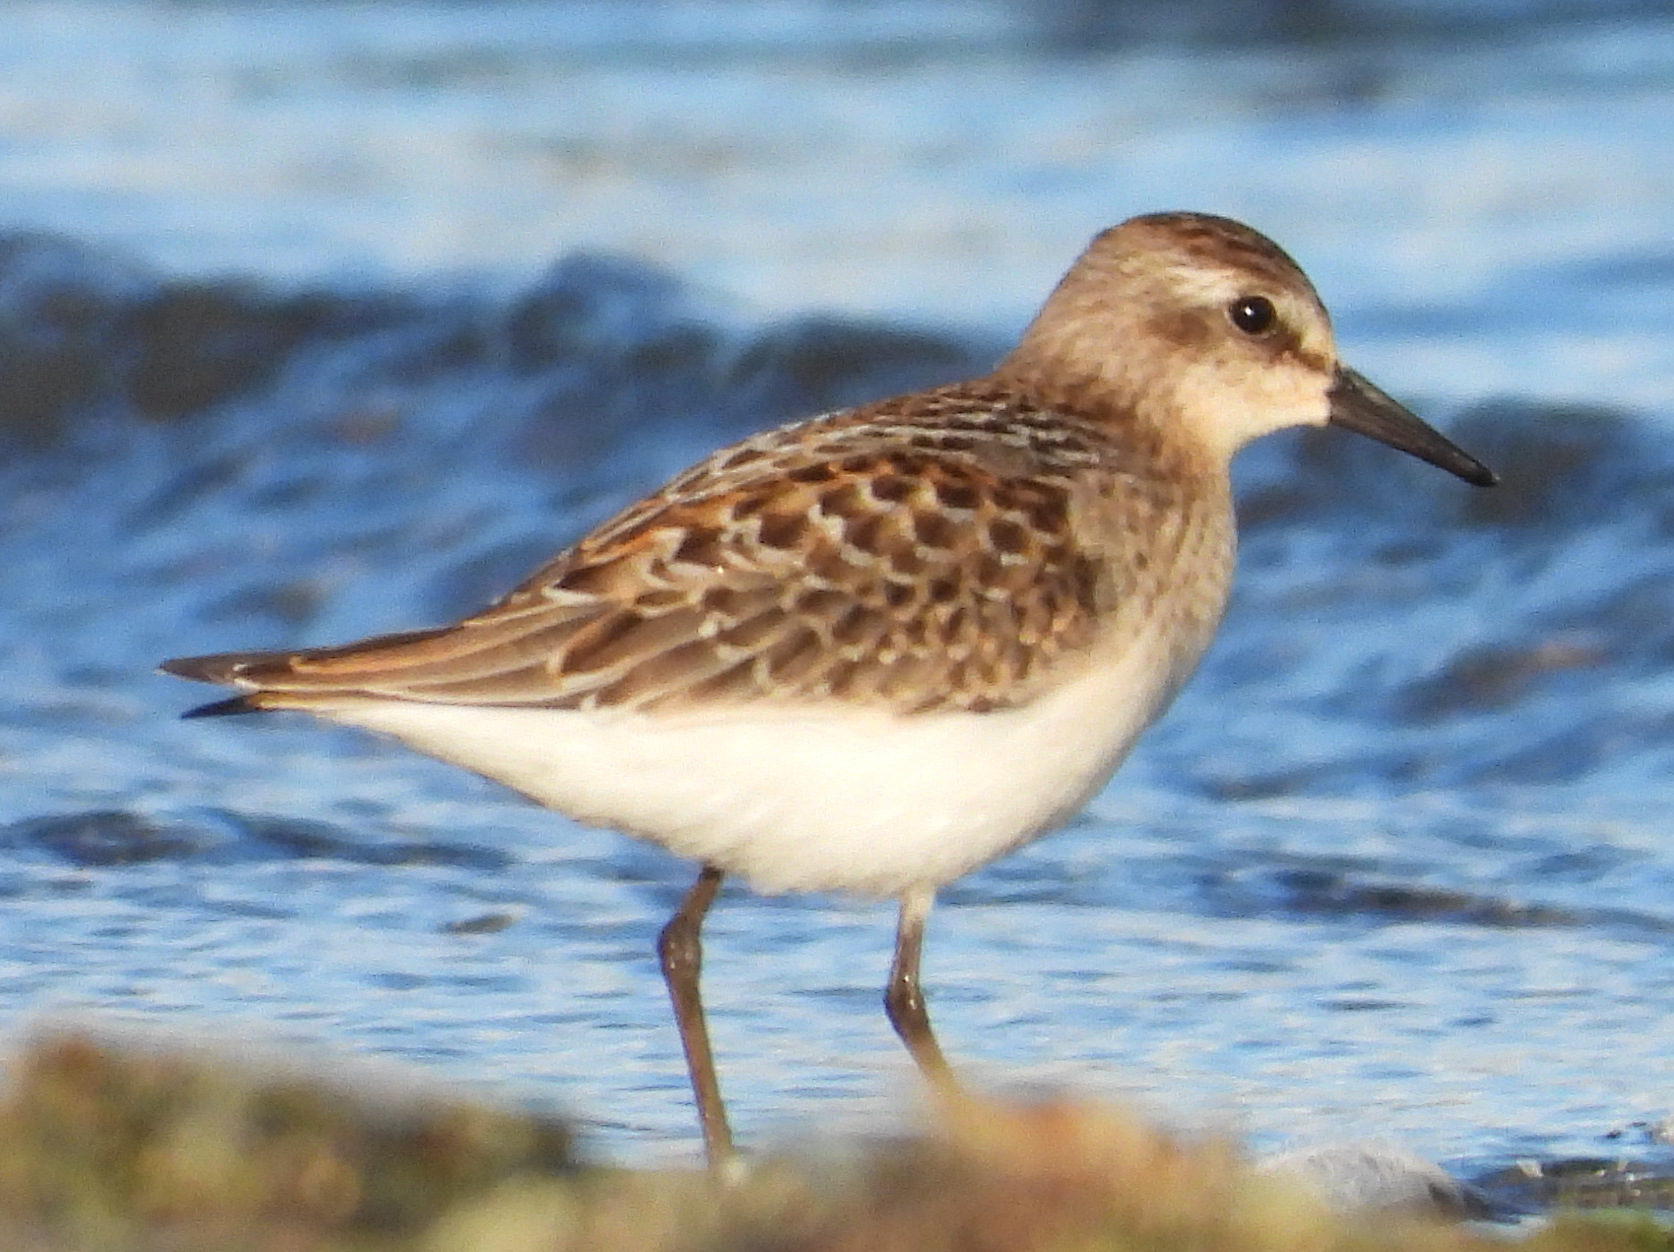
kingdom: Animalia
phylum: Chordata
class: Aves
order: Charadriiformes
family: Scolopacidae
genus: Calidris
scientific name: Calidris pusilla
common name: Semipalmated sandpiper
